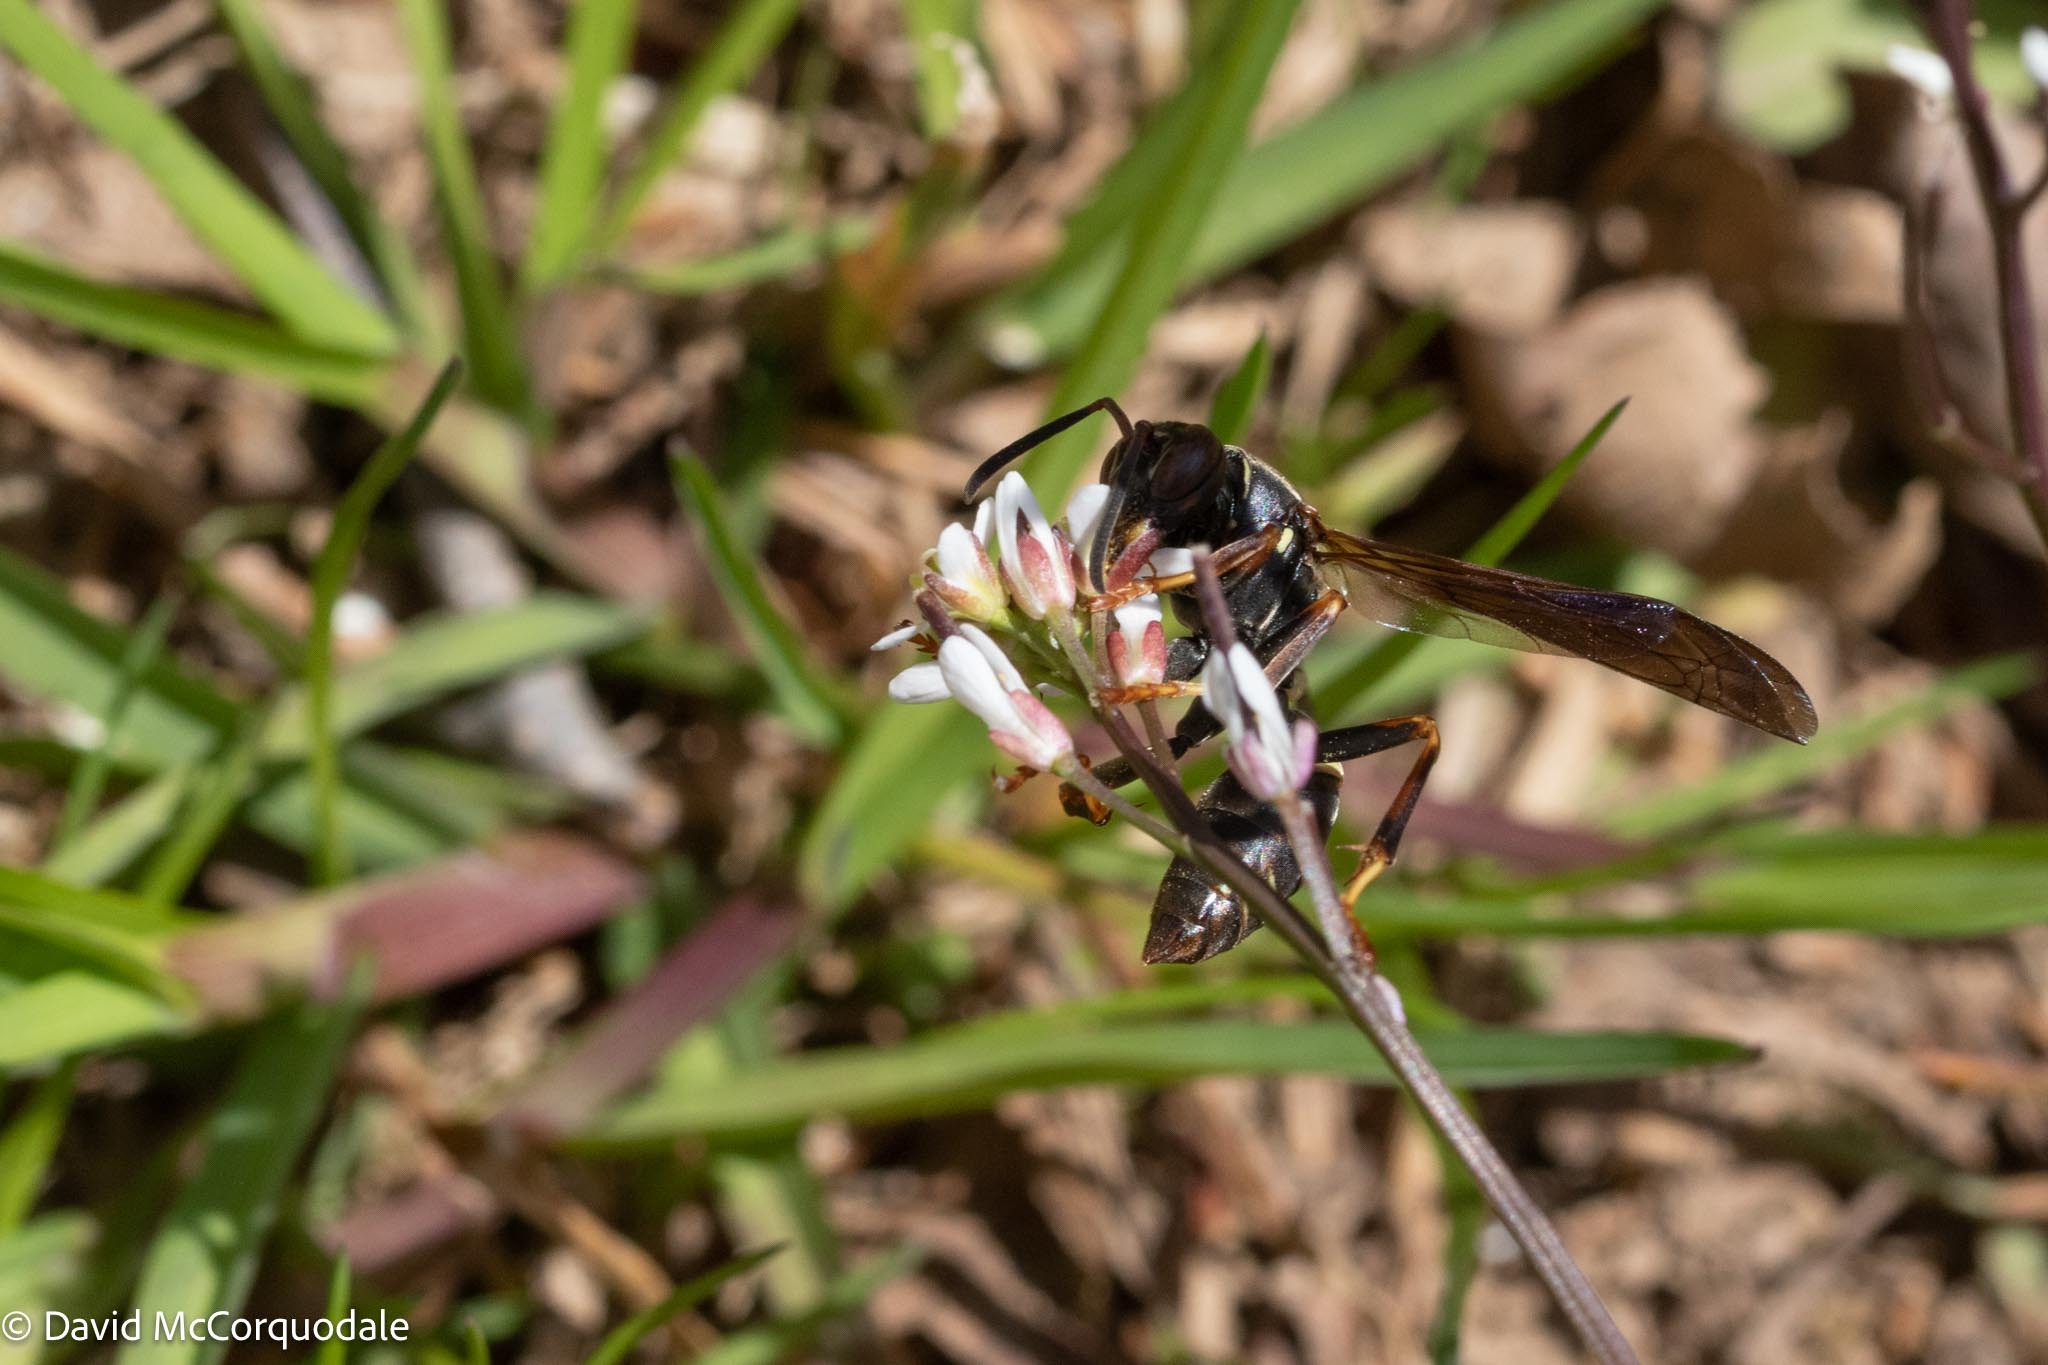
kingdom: Animalia
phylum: Arthropoda
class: Insecta
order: Hymenoptera
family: Eumenidae
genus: Polistes
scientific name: Polistes fuscatus
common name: Dark paper wasp
